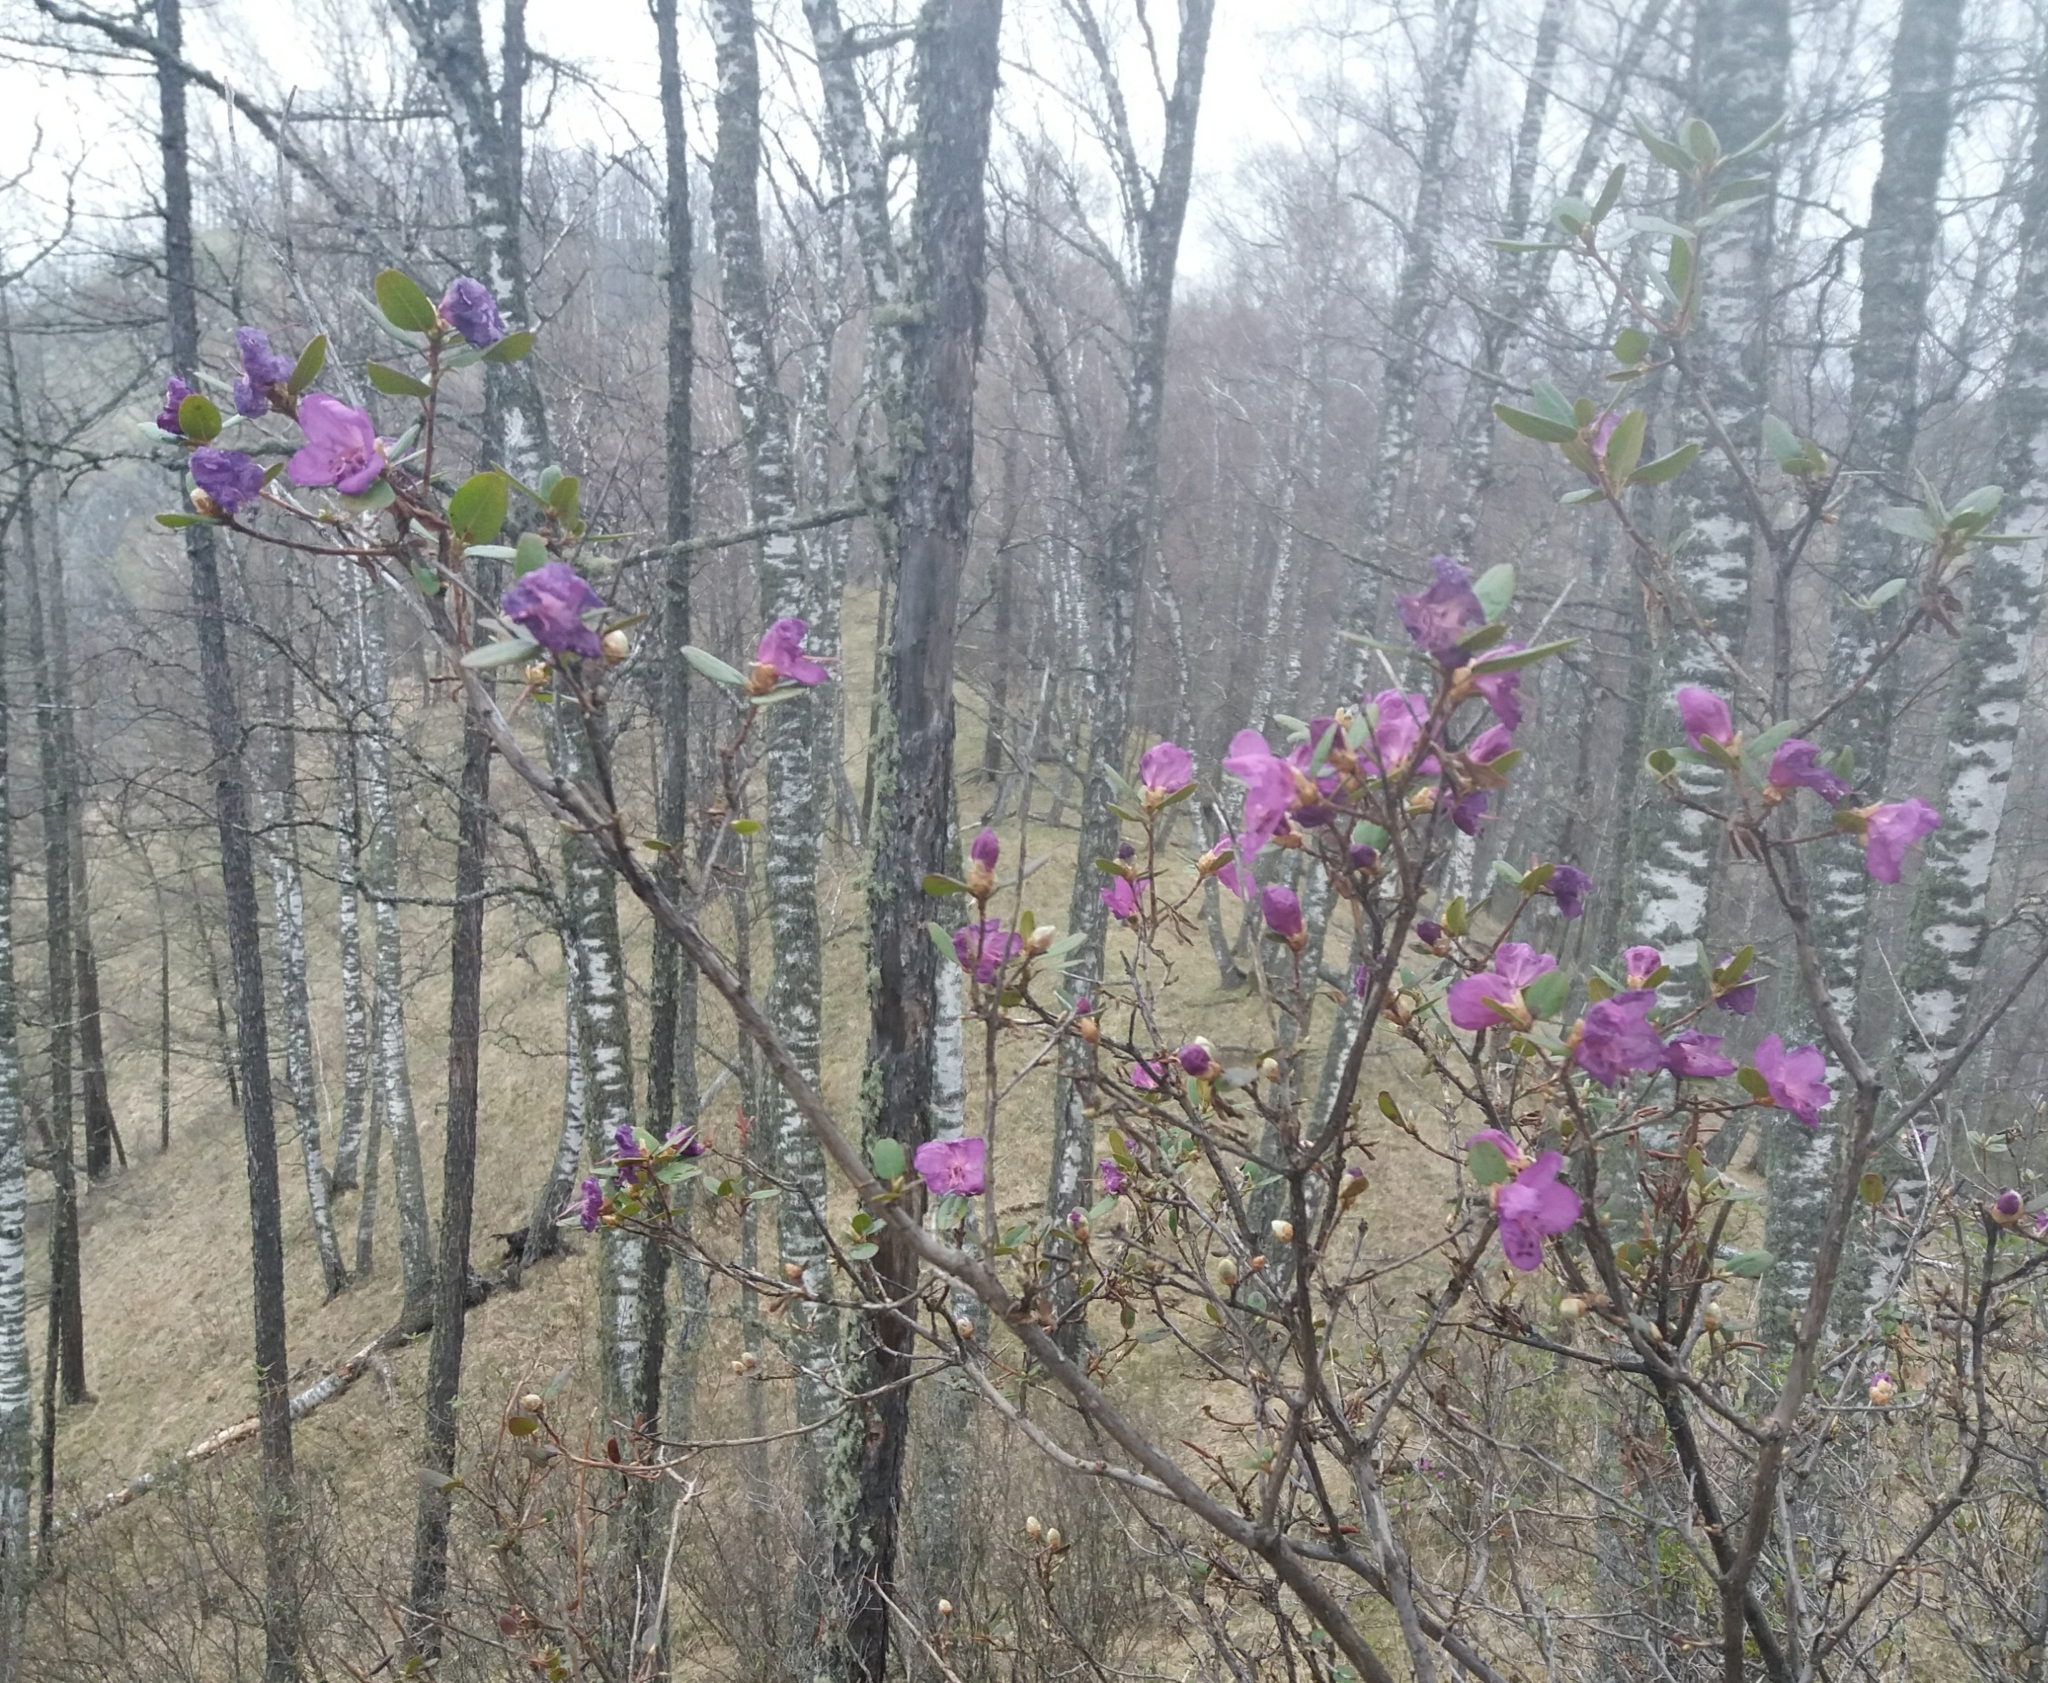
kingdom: Plantae
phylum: Tracheophyta
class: Magnoliopsida
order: Ericales
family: Ericaceae
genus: Rhododendron
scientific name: Rhododendron dauricum
